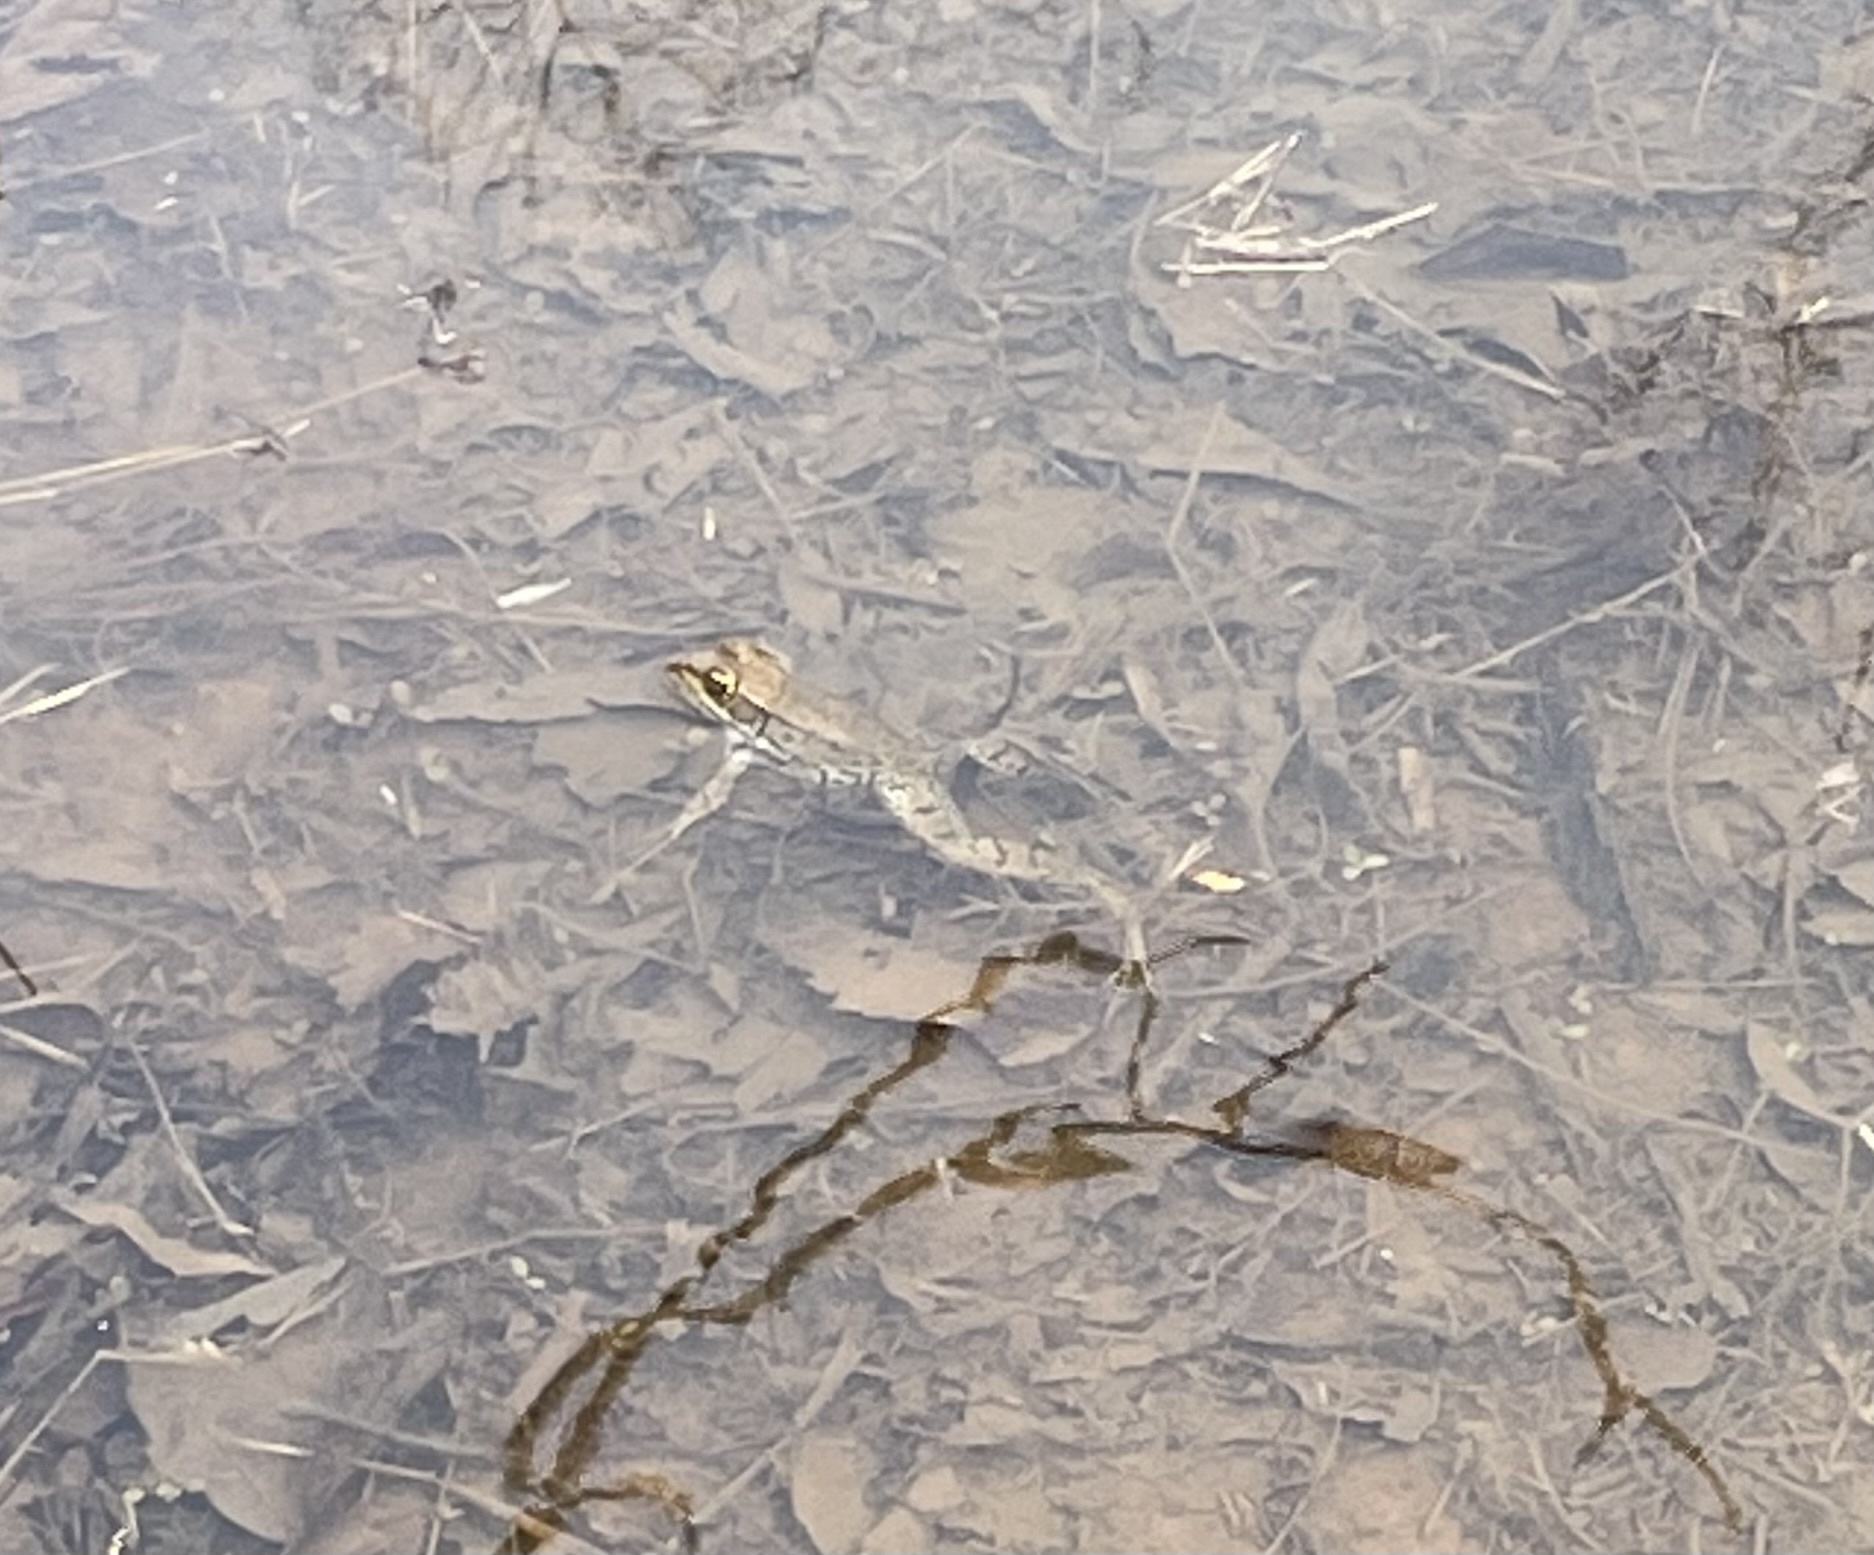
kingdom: Animalia
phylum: Chordata
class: Amphibia
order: Anura
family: Ranidae
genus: Lithobates
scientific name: Lithobates clamitans
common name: Green frog
